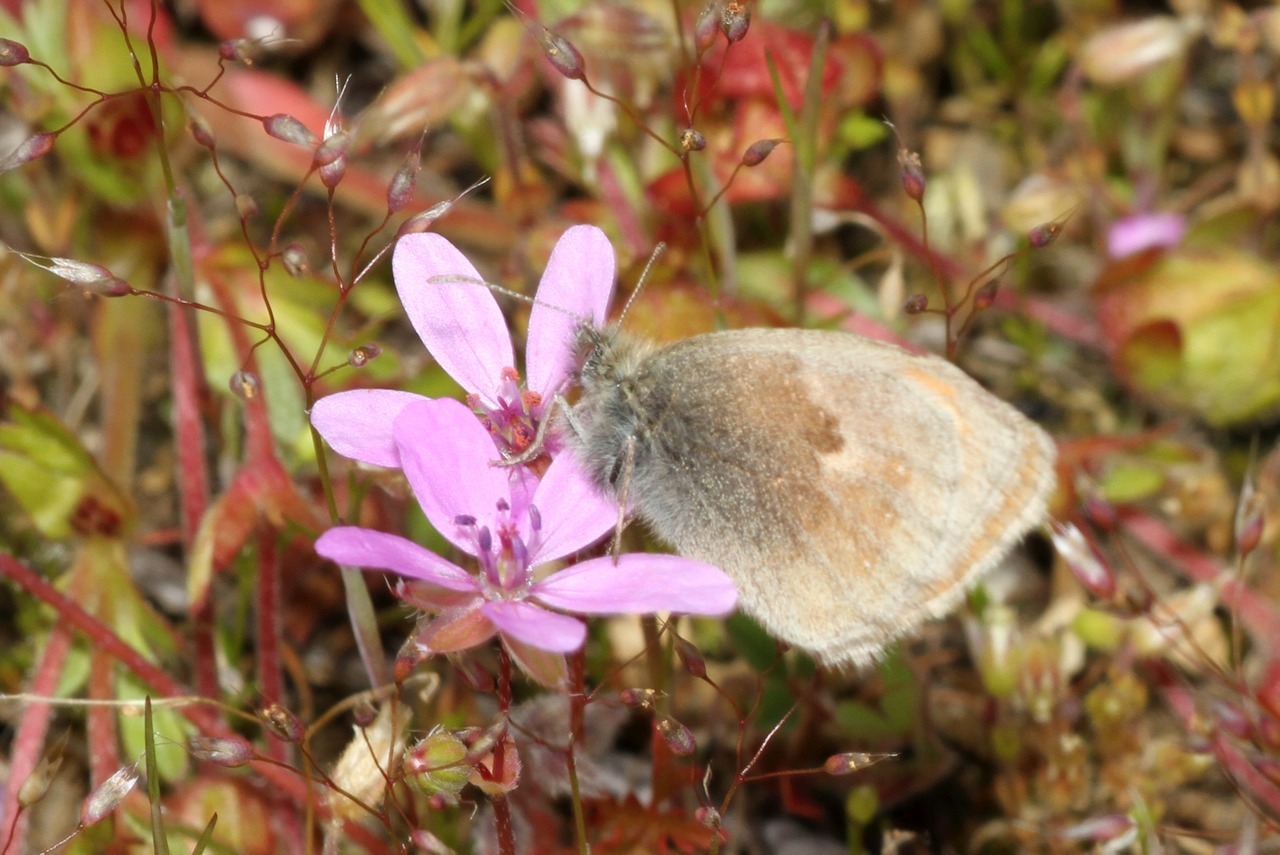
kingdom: Animalia
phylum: Arthropoda
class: Insecta
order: Lepidoptera
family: Nymphalidae
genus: Coenonympha
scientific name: Coenonympha pamphilus
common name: Small heath
